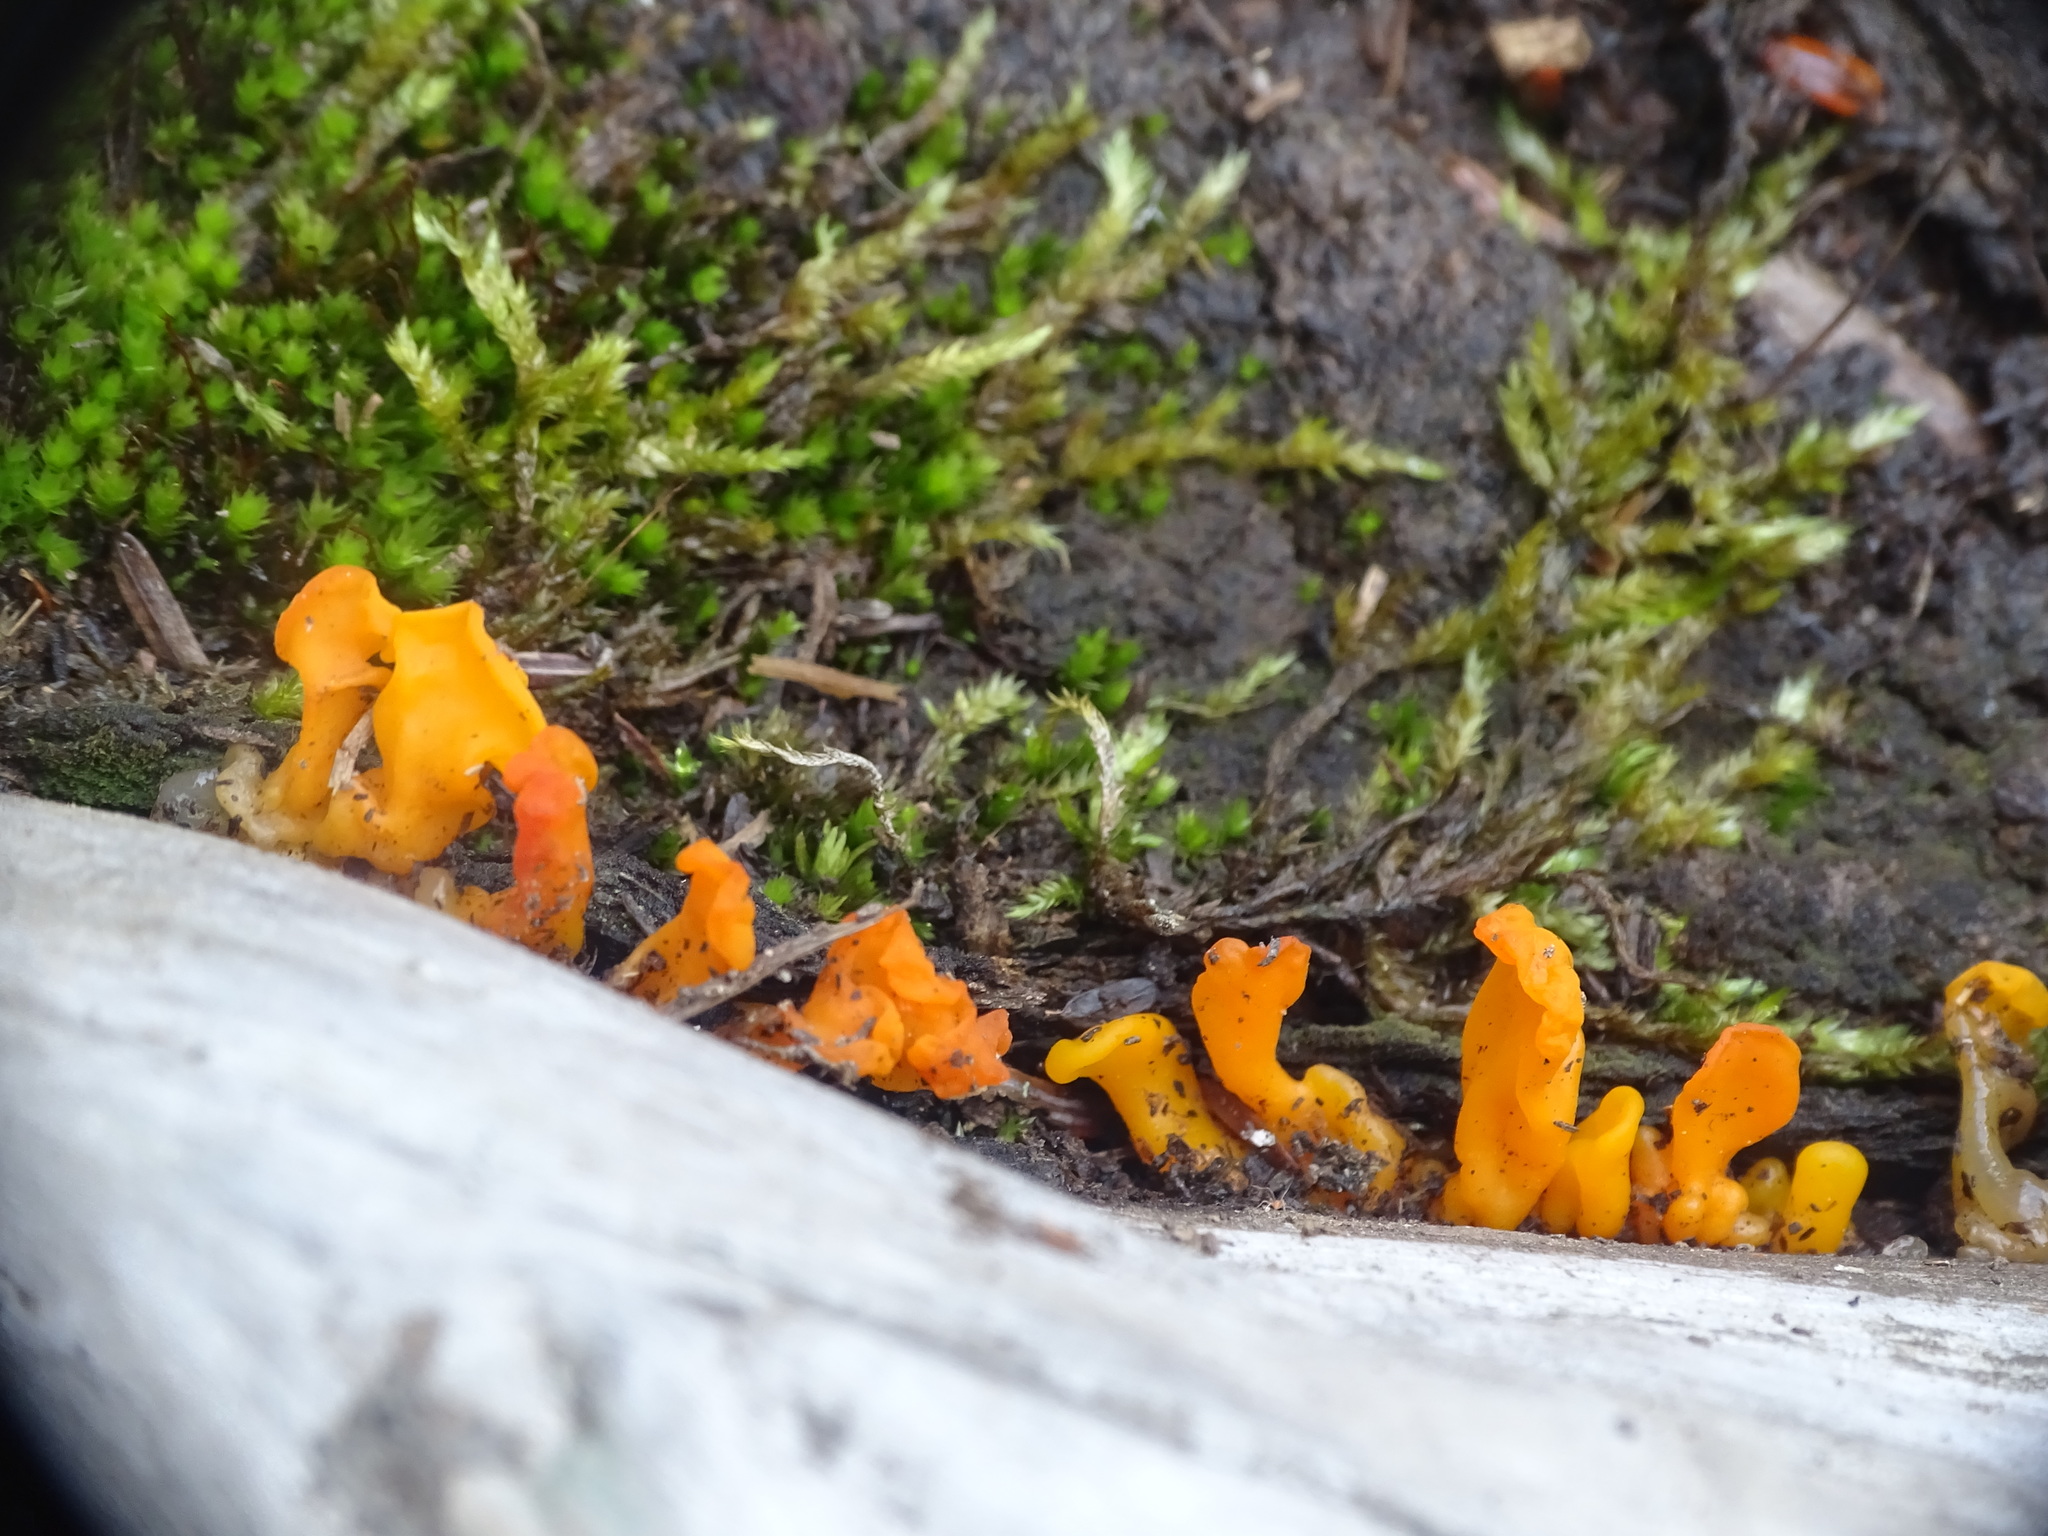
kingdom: Fungi
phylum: Basidiomycota
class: Dacrymycetes
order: Dacrymycetales
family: Dacrymycetaceae
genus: Dacrymyces
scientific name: Dacrymyces spathularius
